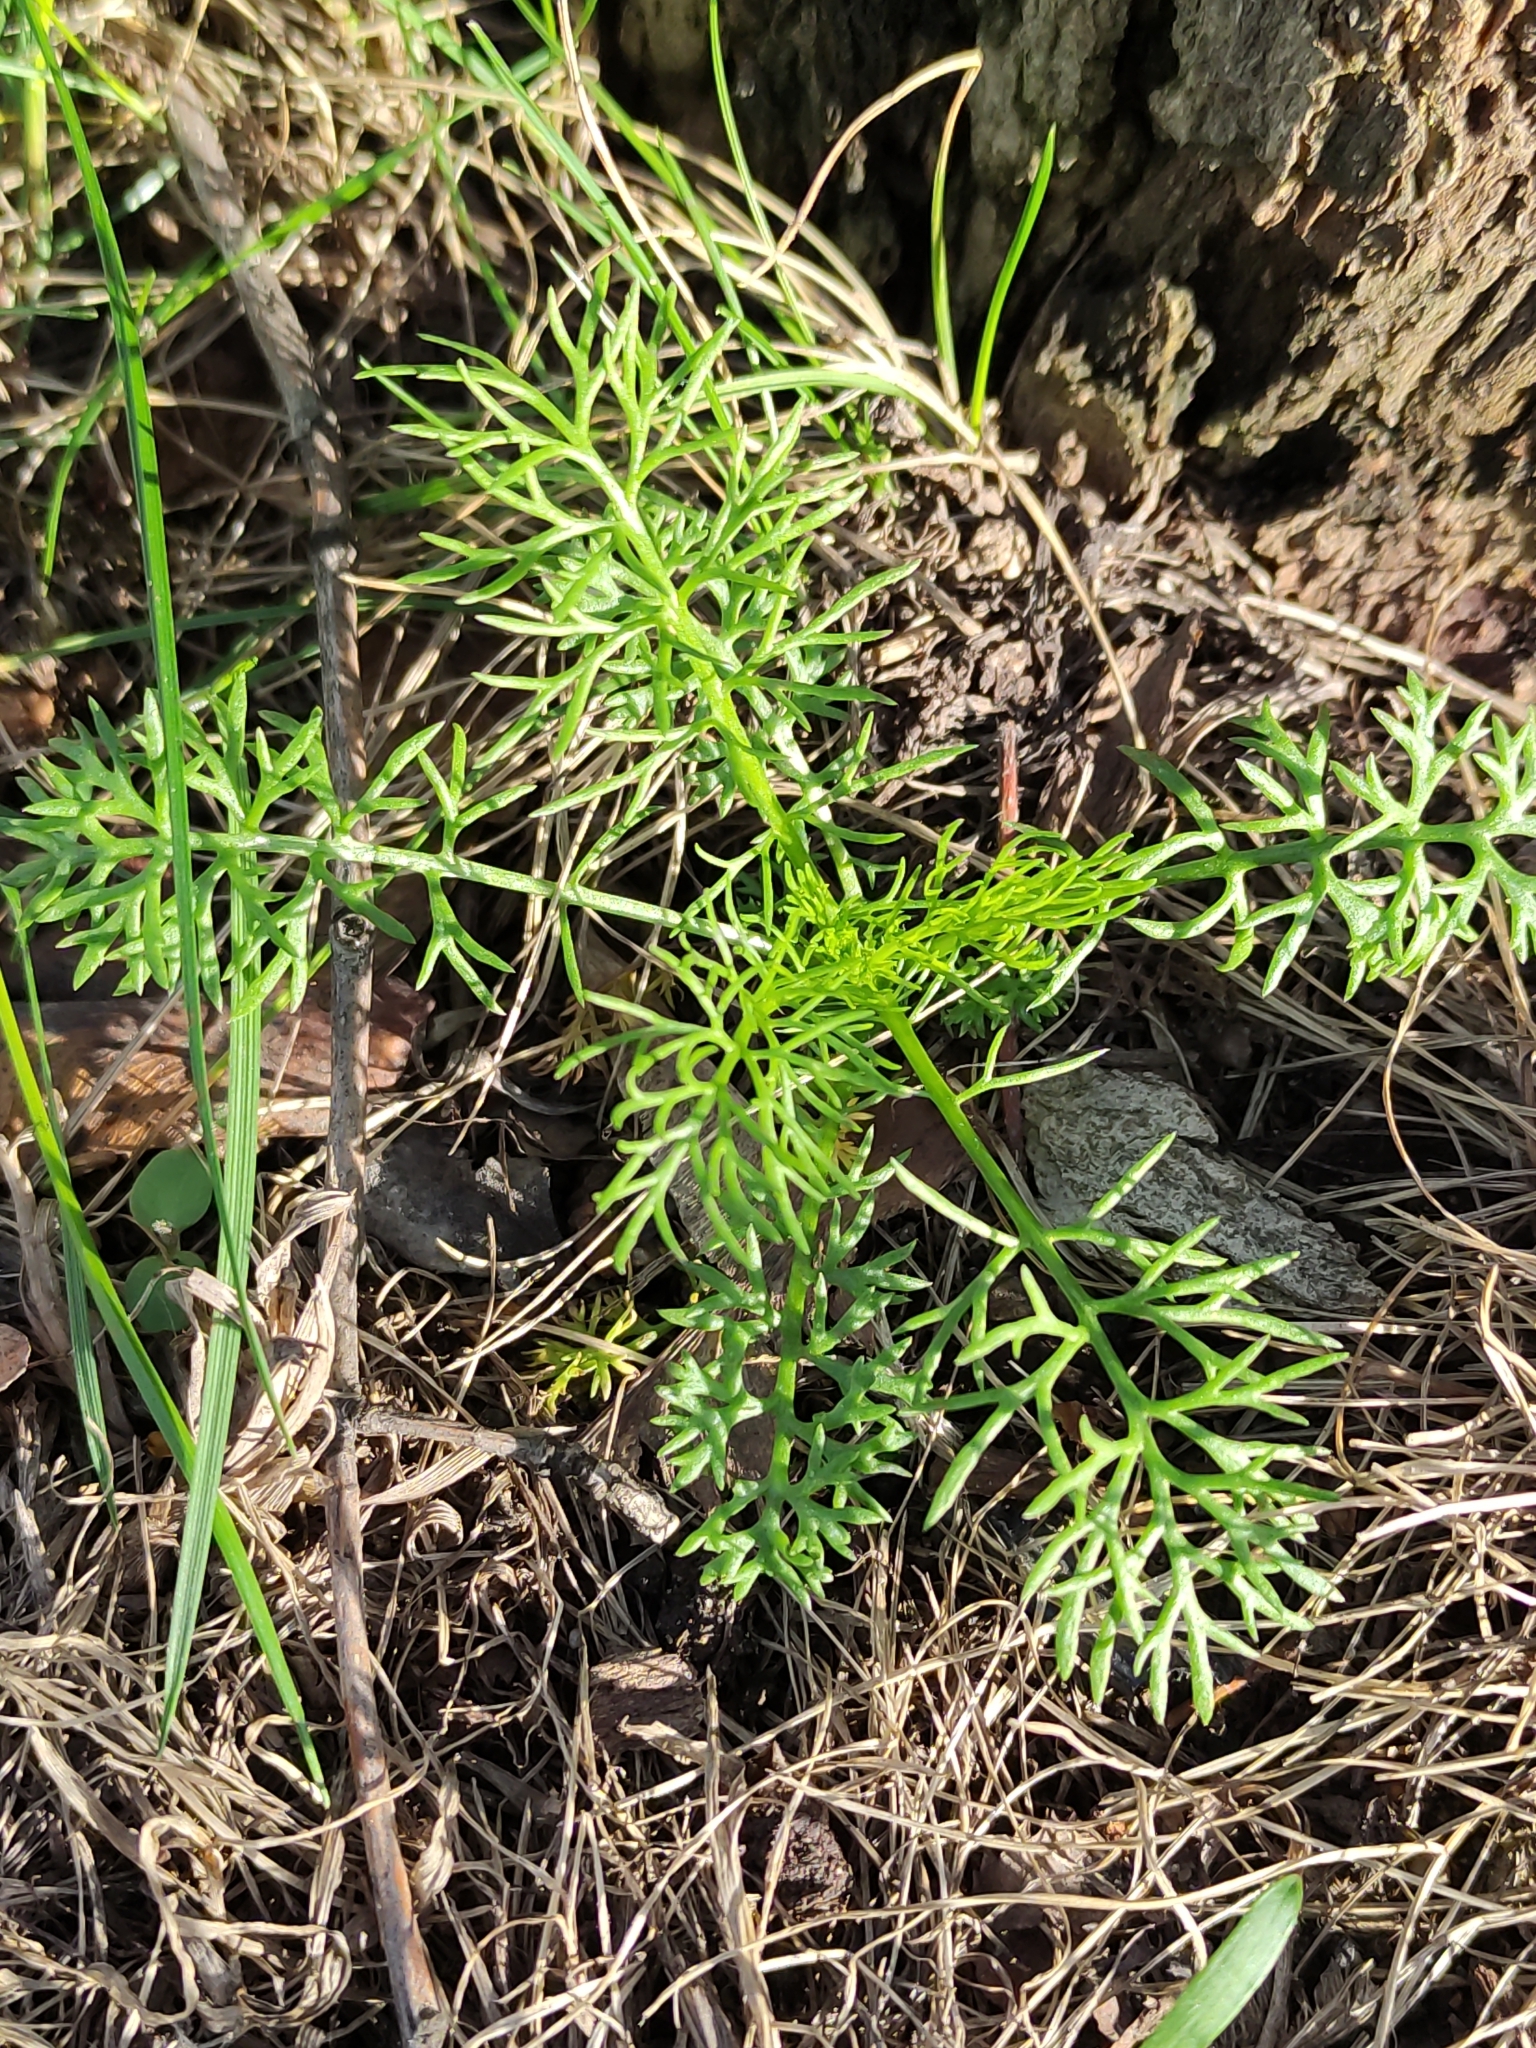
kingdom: Plantae
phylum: Tracheophyta
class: Magnoliopsida
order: Asterales
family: Asteraceae
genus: Tripleurospermum
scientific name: Tripleurospermum inodorum
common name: Scentless mayweed
